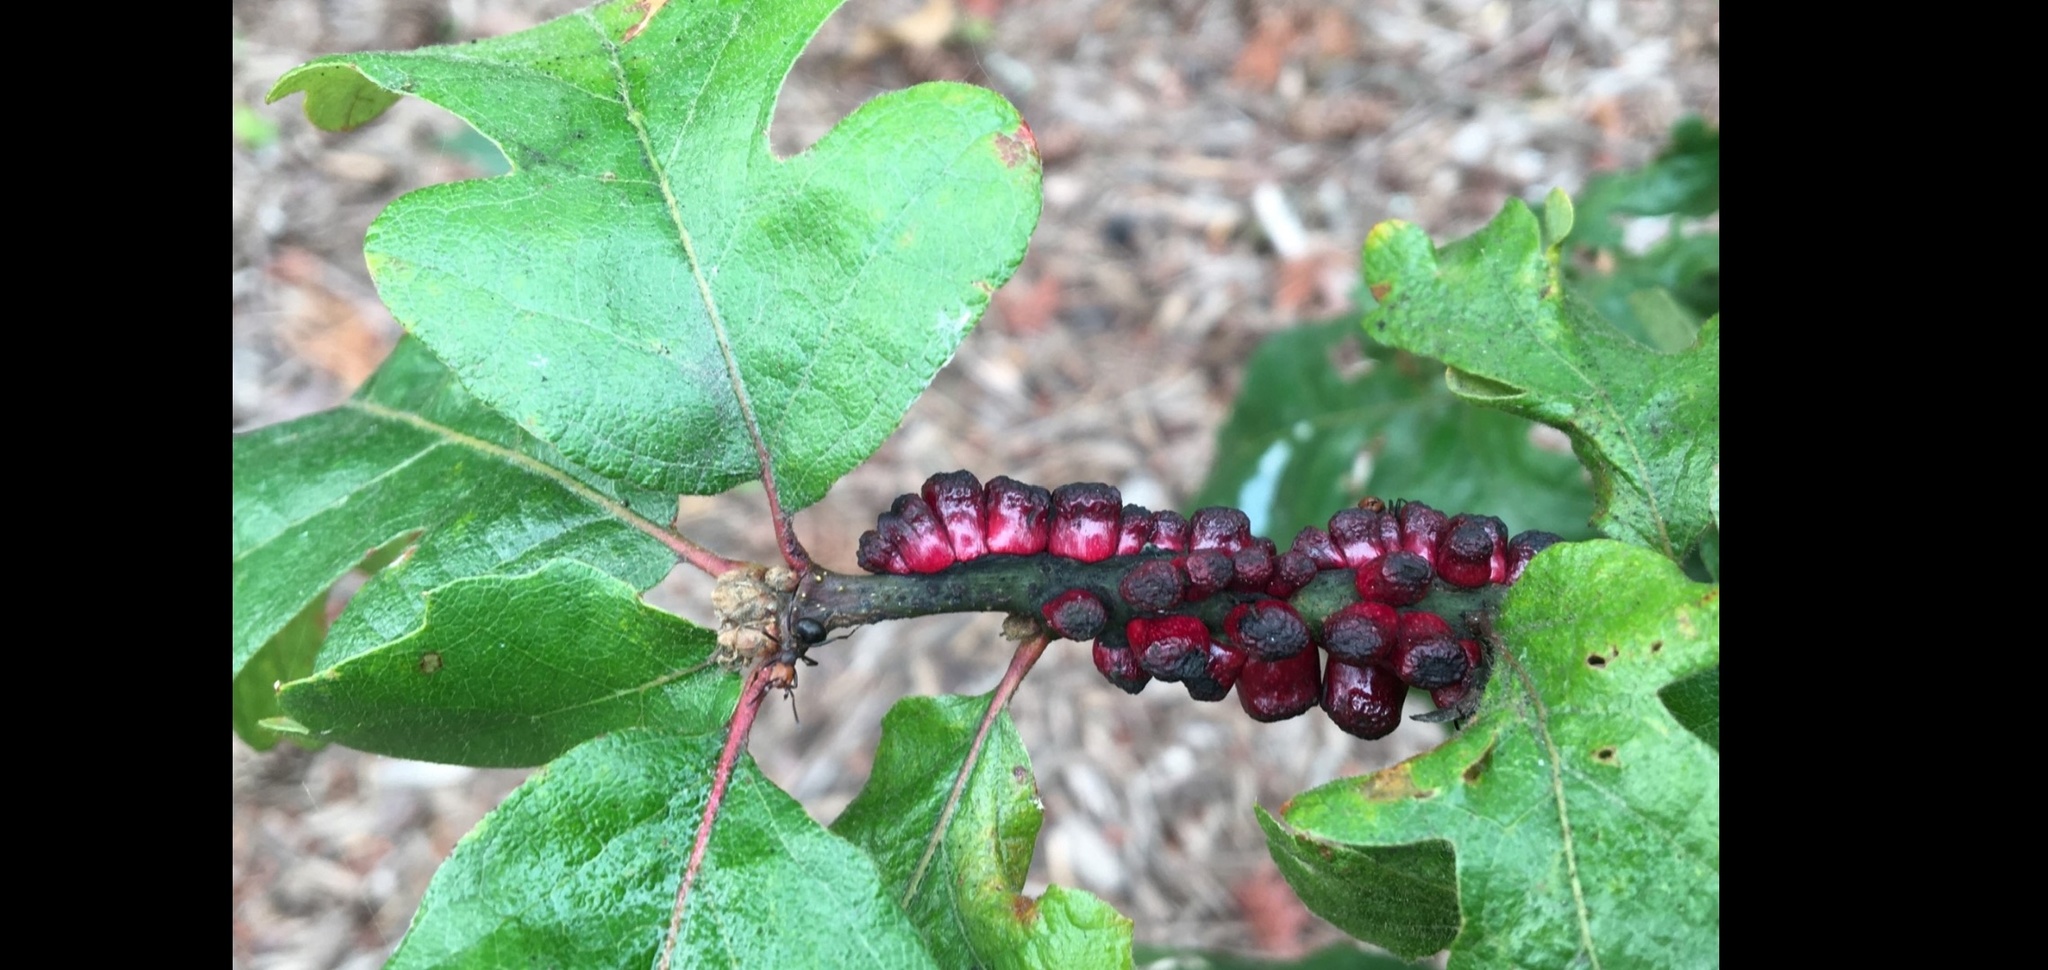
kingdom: Animalia
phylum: Arthropoda
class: Insecta
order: Hymenoptera
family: Cynipidae
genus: Disholcaspis
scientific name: Disholcaspis
